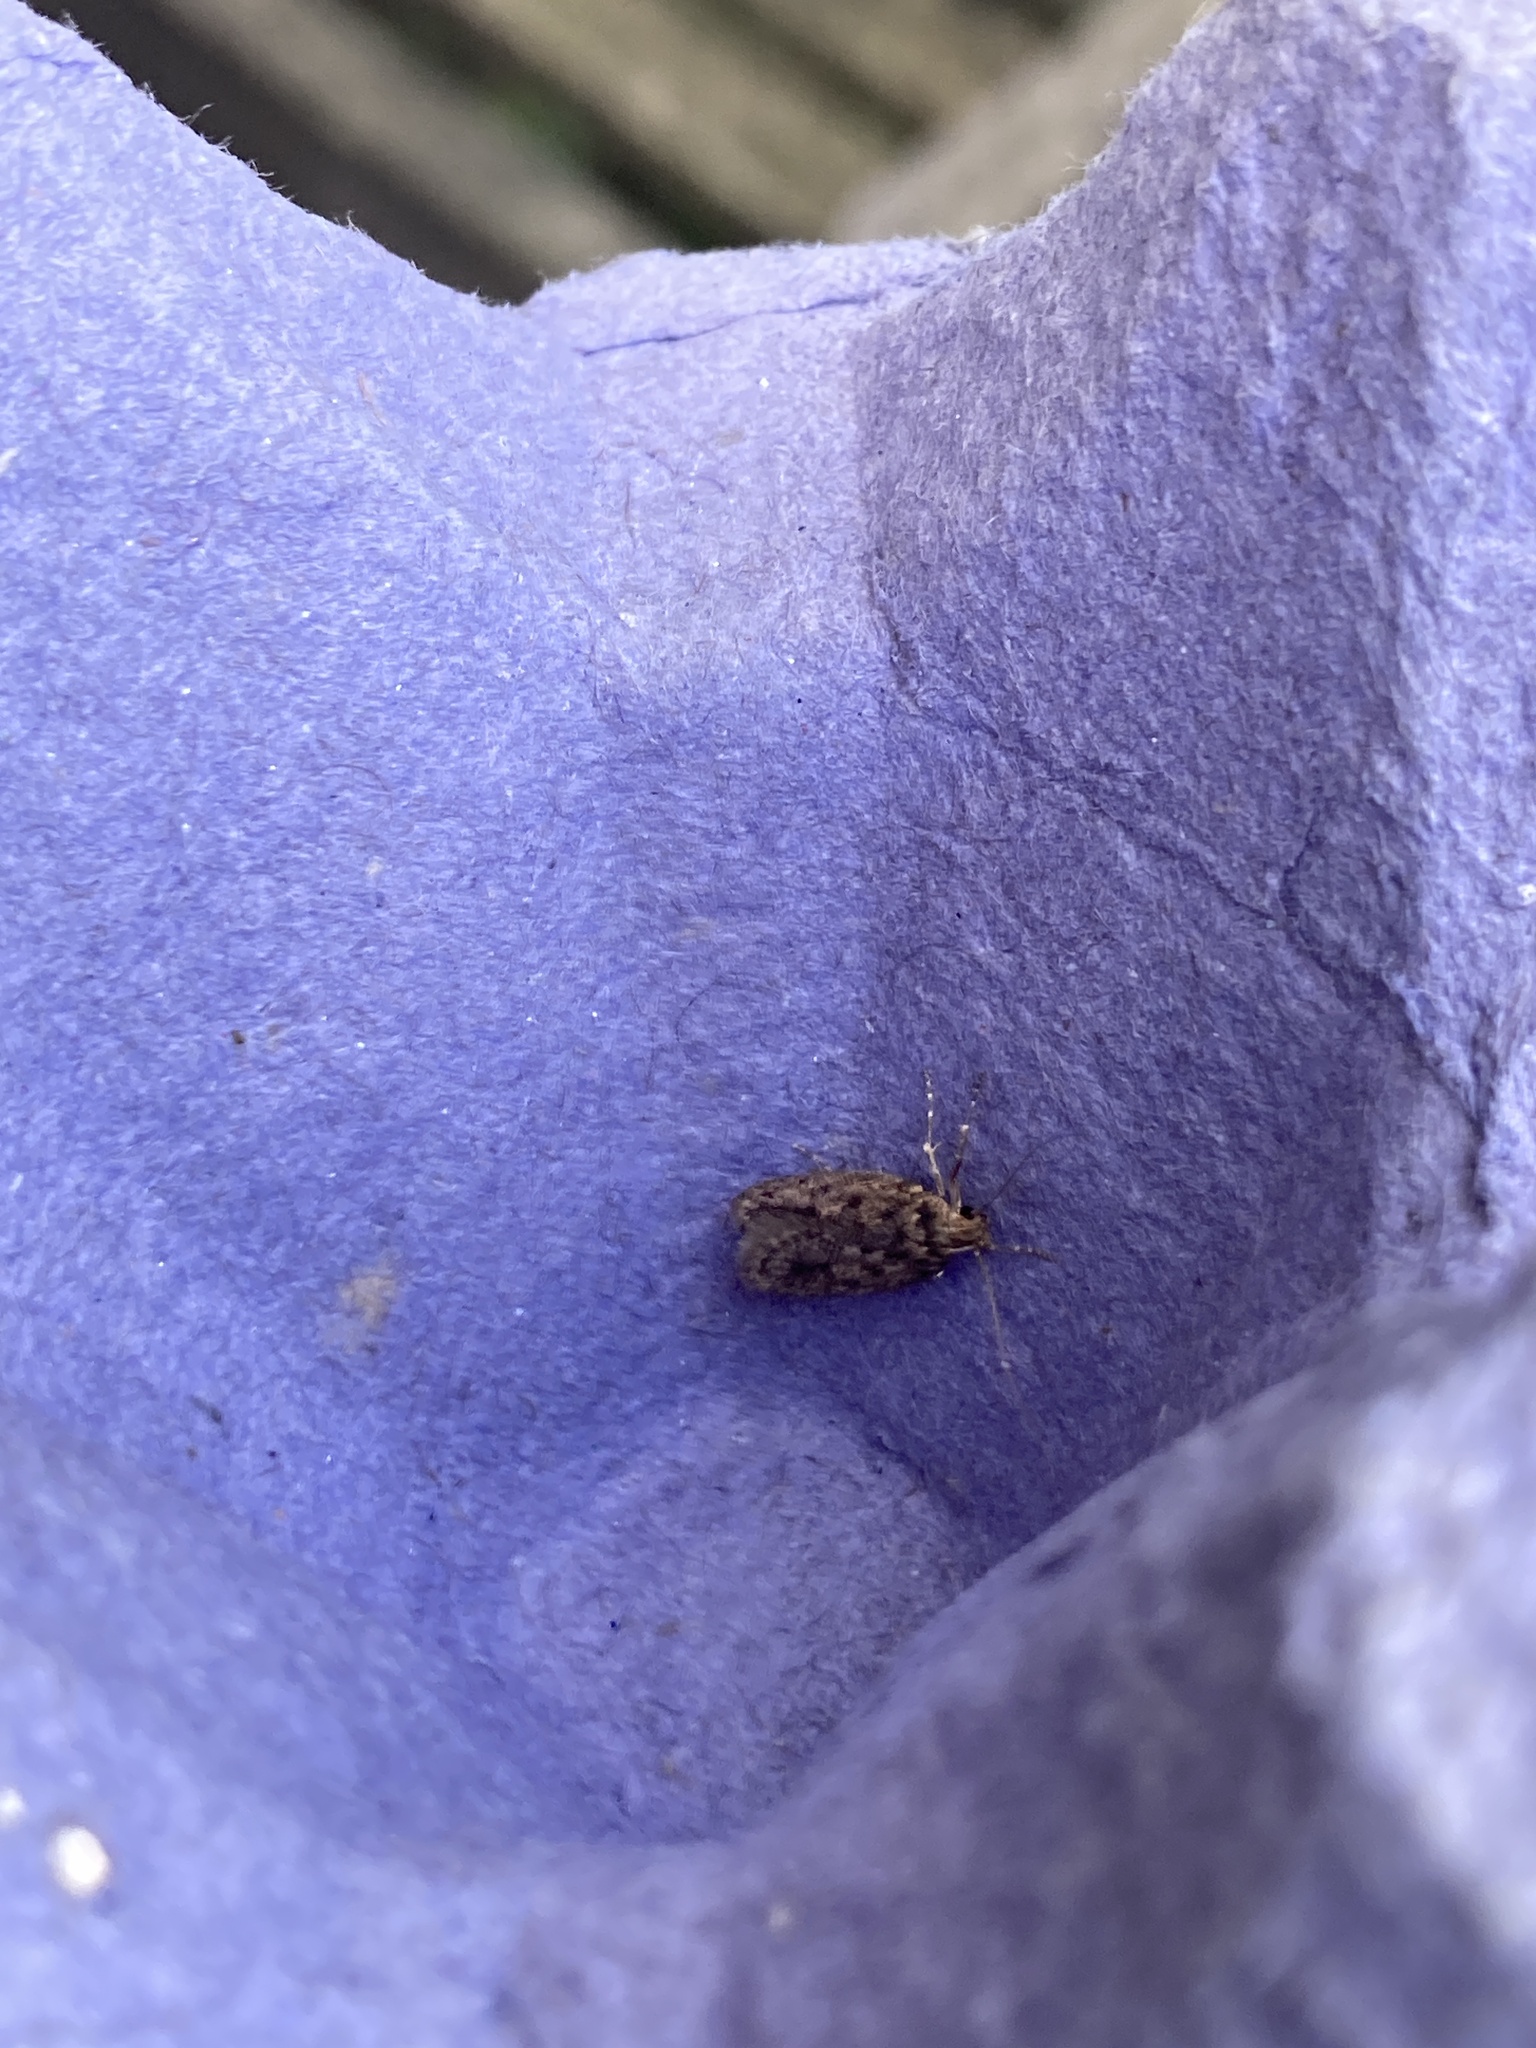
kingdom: Animalia
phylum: Arthropoda
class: Insecta
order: Lepidoptera
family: Oecophoridae
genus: Hofmannophila
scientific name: Hofmannophila pseudospretella
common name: Brown house moth
